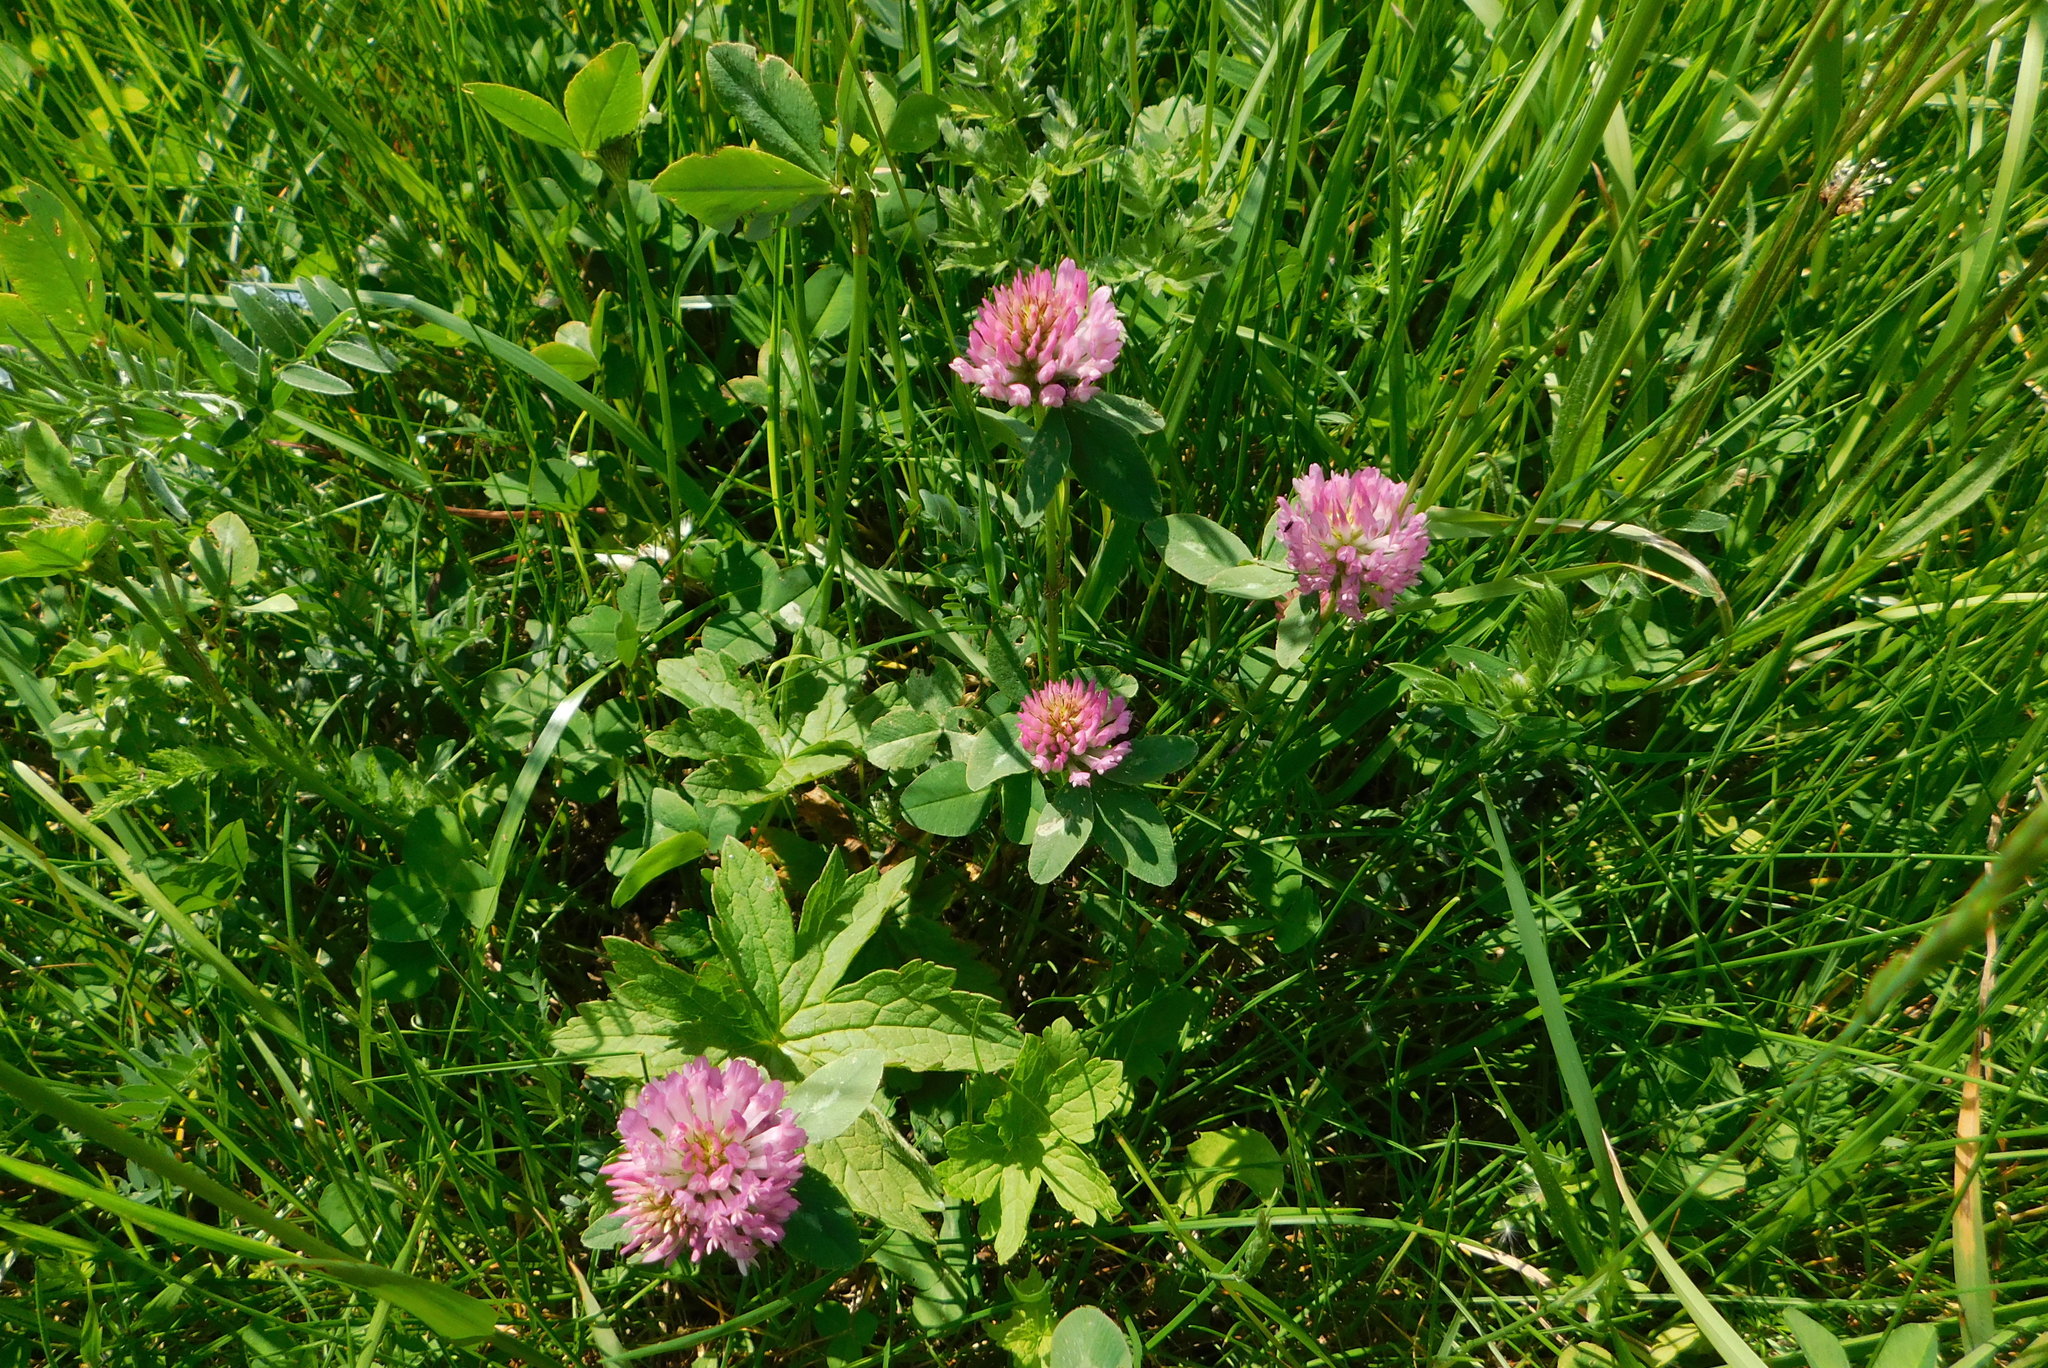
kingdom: Plantae
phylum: Tracheophyta
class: Magnoliopsida
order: Fabales
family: Fabaceae
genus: Trifolium
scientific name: Trifolium pratense
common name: Red clover
